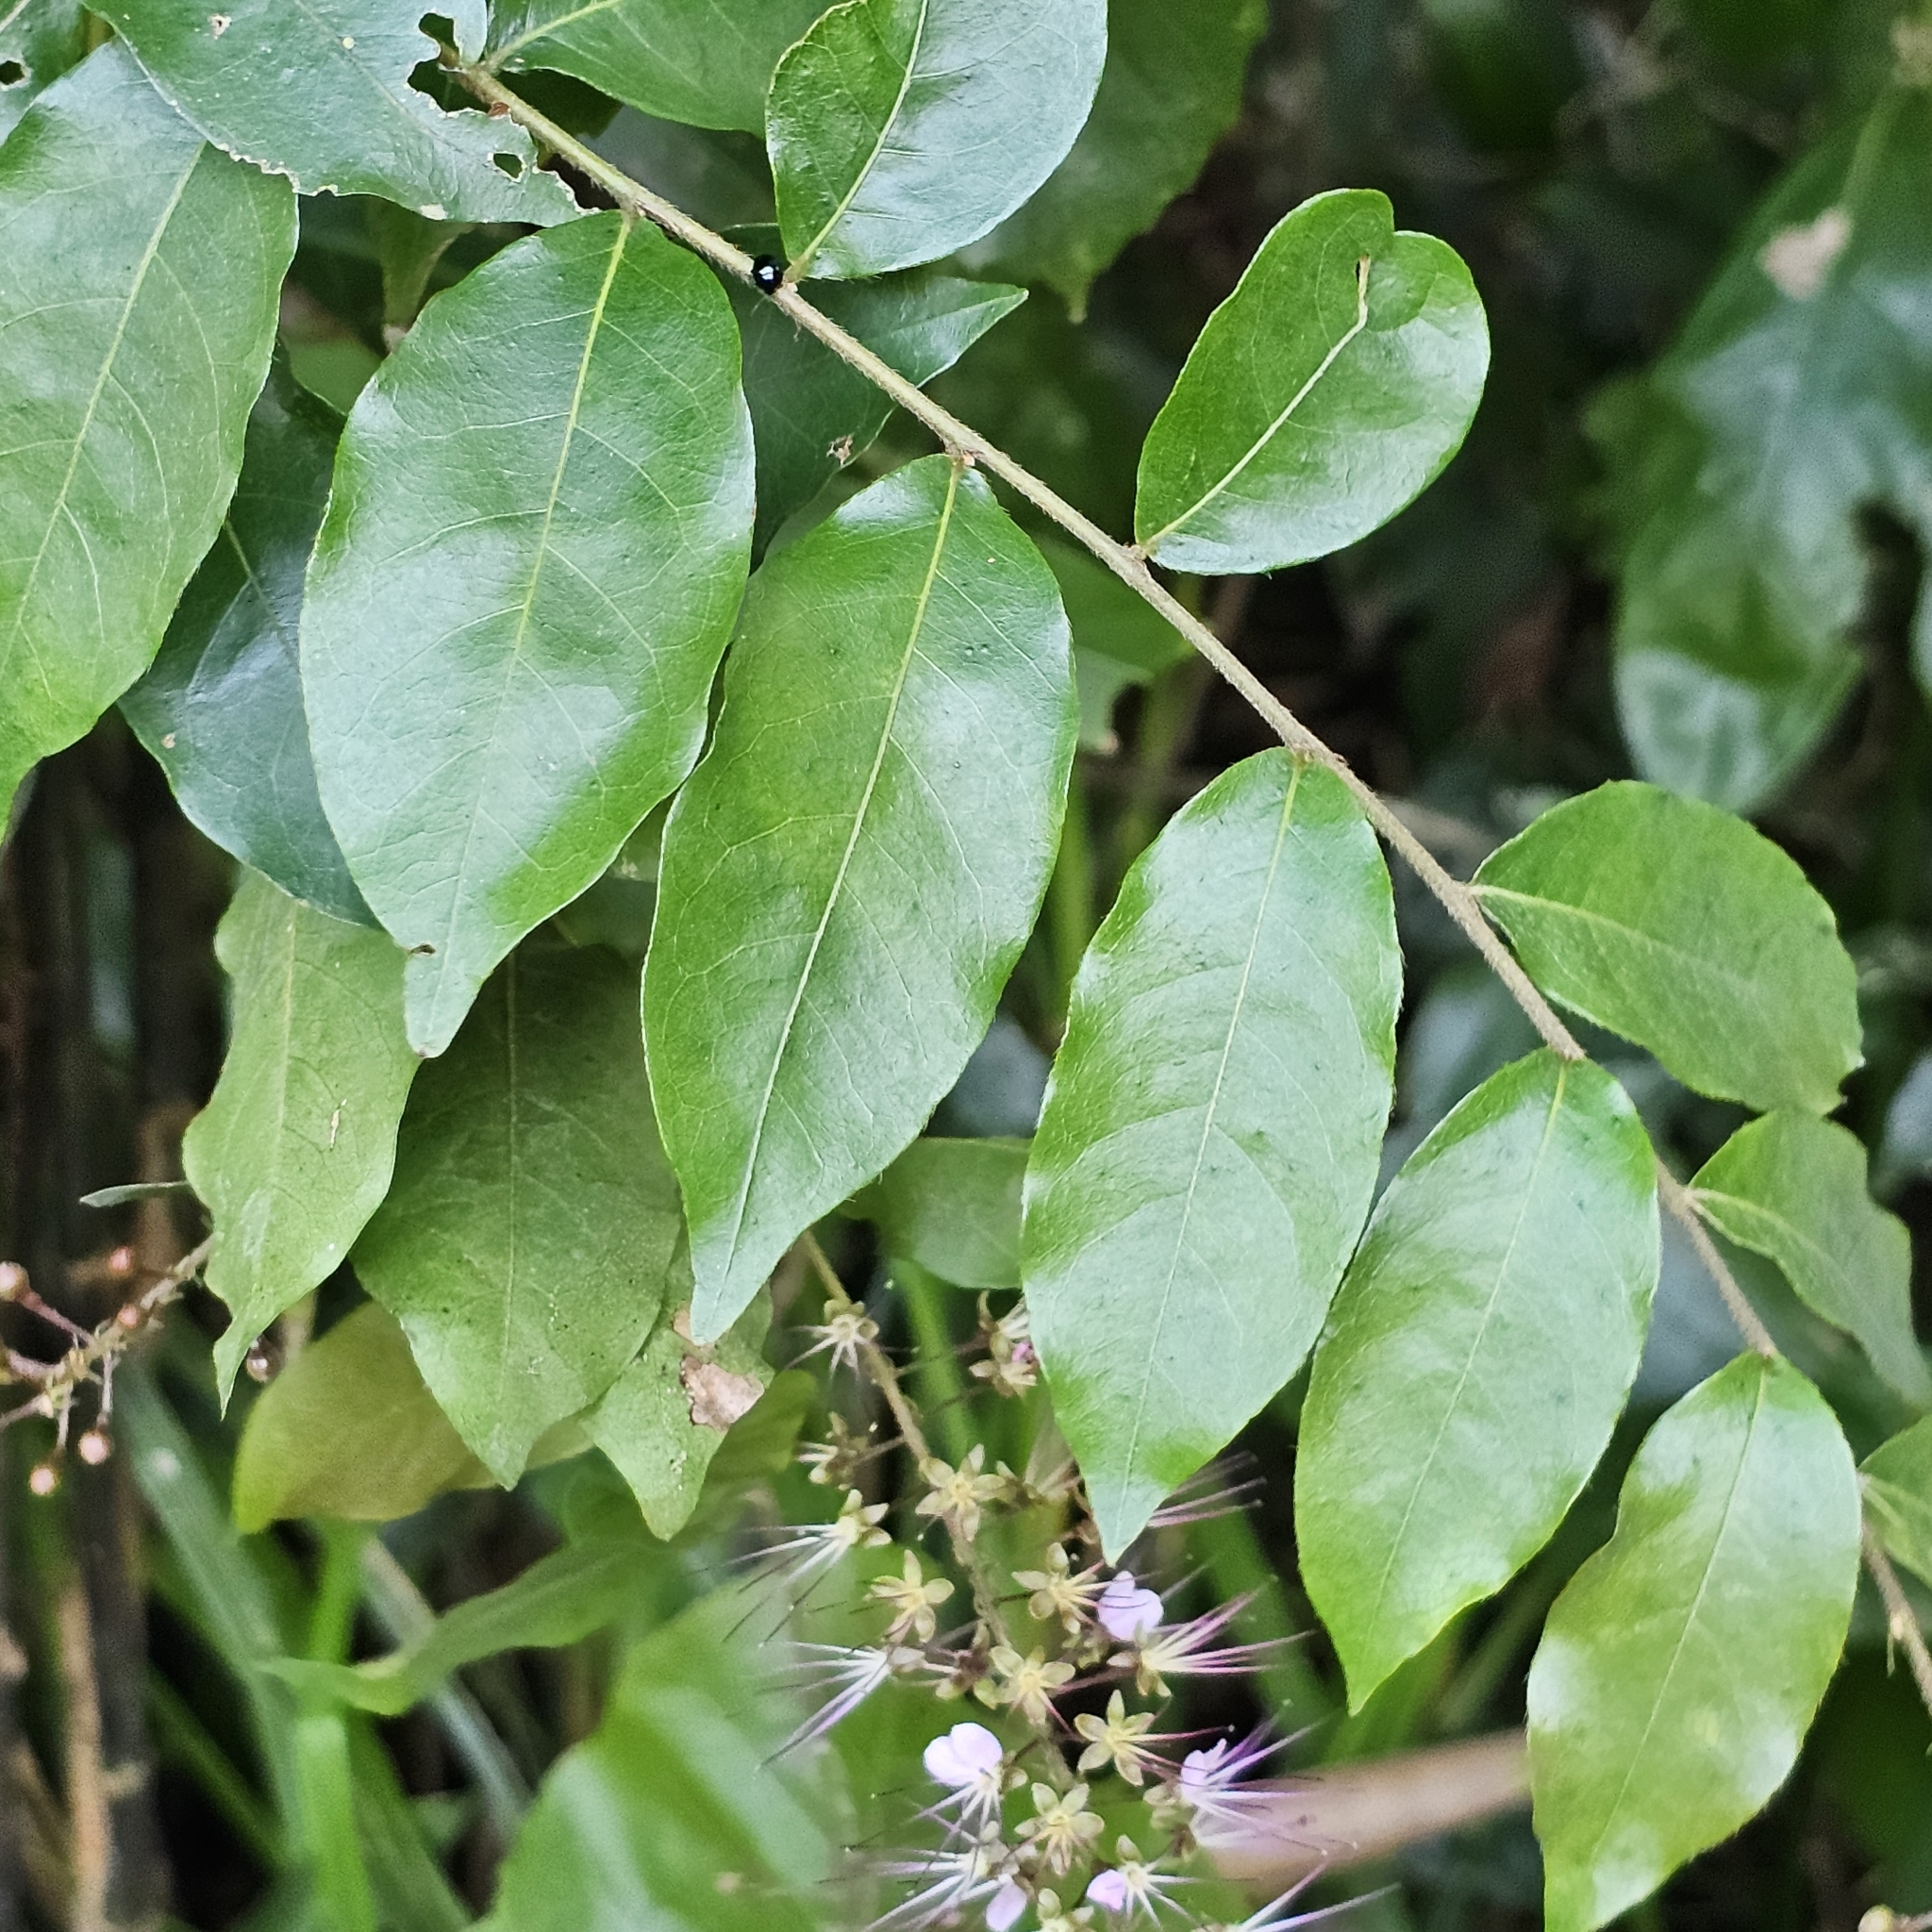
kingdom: Plantae
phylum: Tracheophyta
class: Magnoliopsida
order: Malpighiales
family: Chrysobalanaceae
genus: Hirtella
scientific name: Hirtella racemosa
